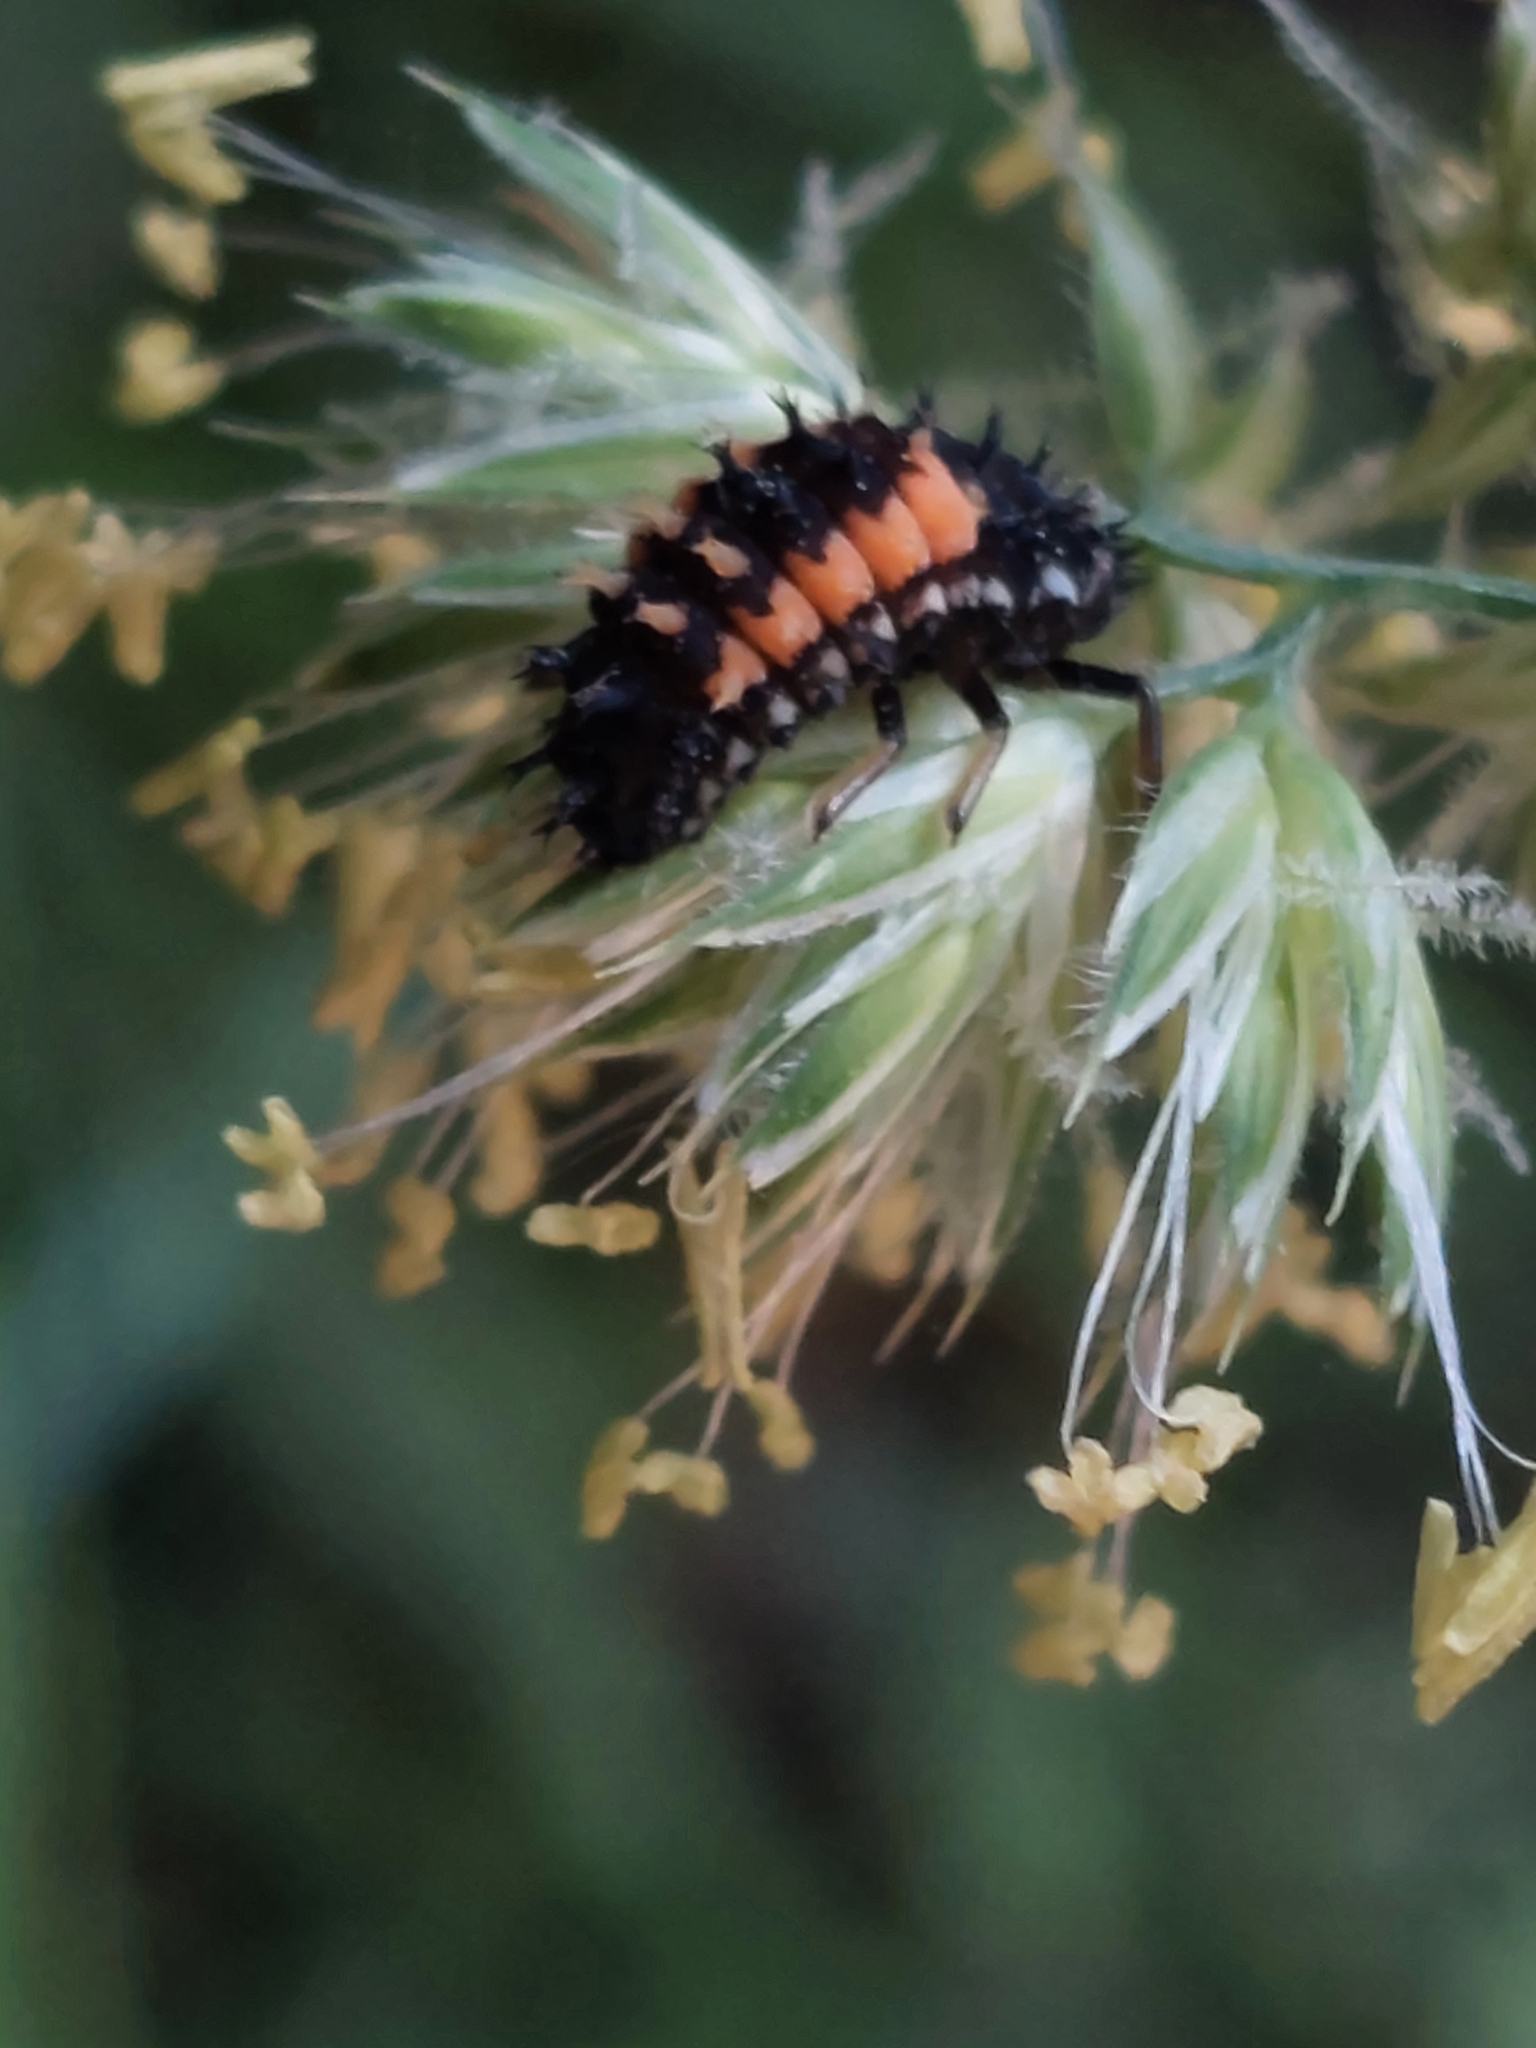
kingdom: Animalia
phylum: Arthropoda
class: Insecta
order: Coleoptera
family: Coccinellidae
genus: Harmonia
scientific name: Harmonia axyridis
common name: Harlequin ladybird
